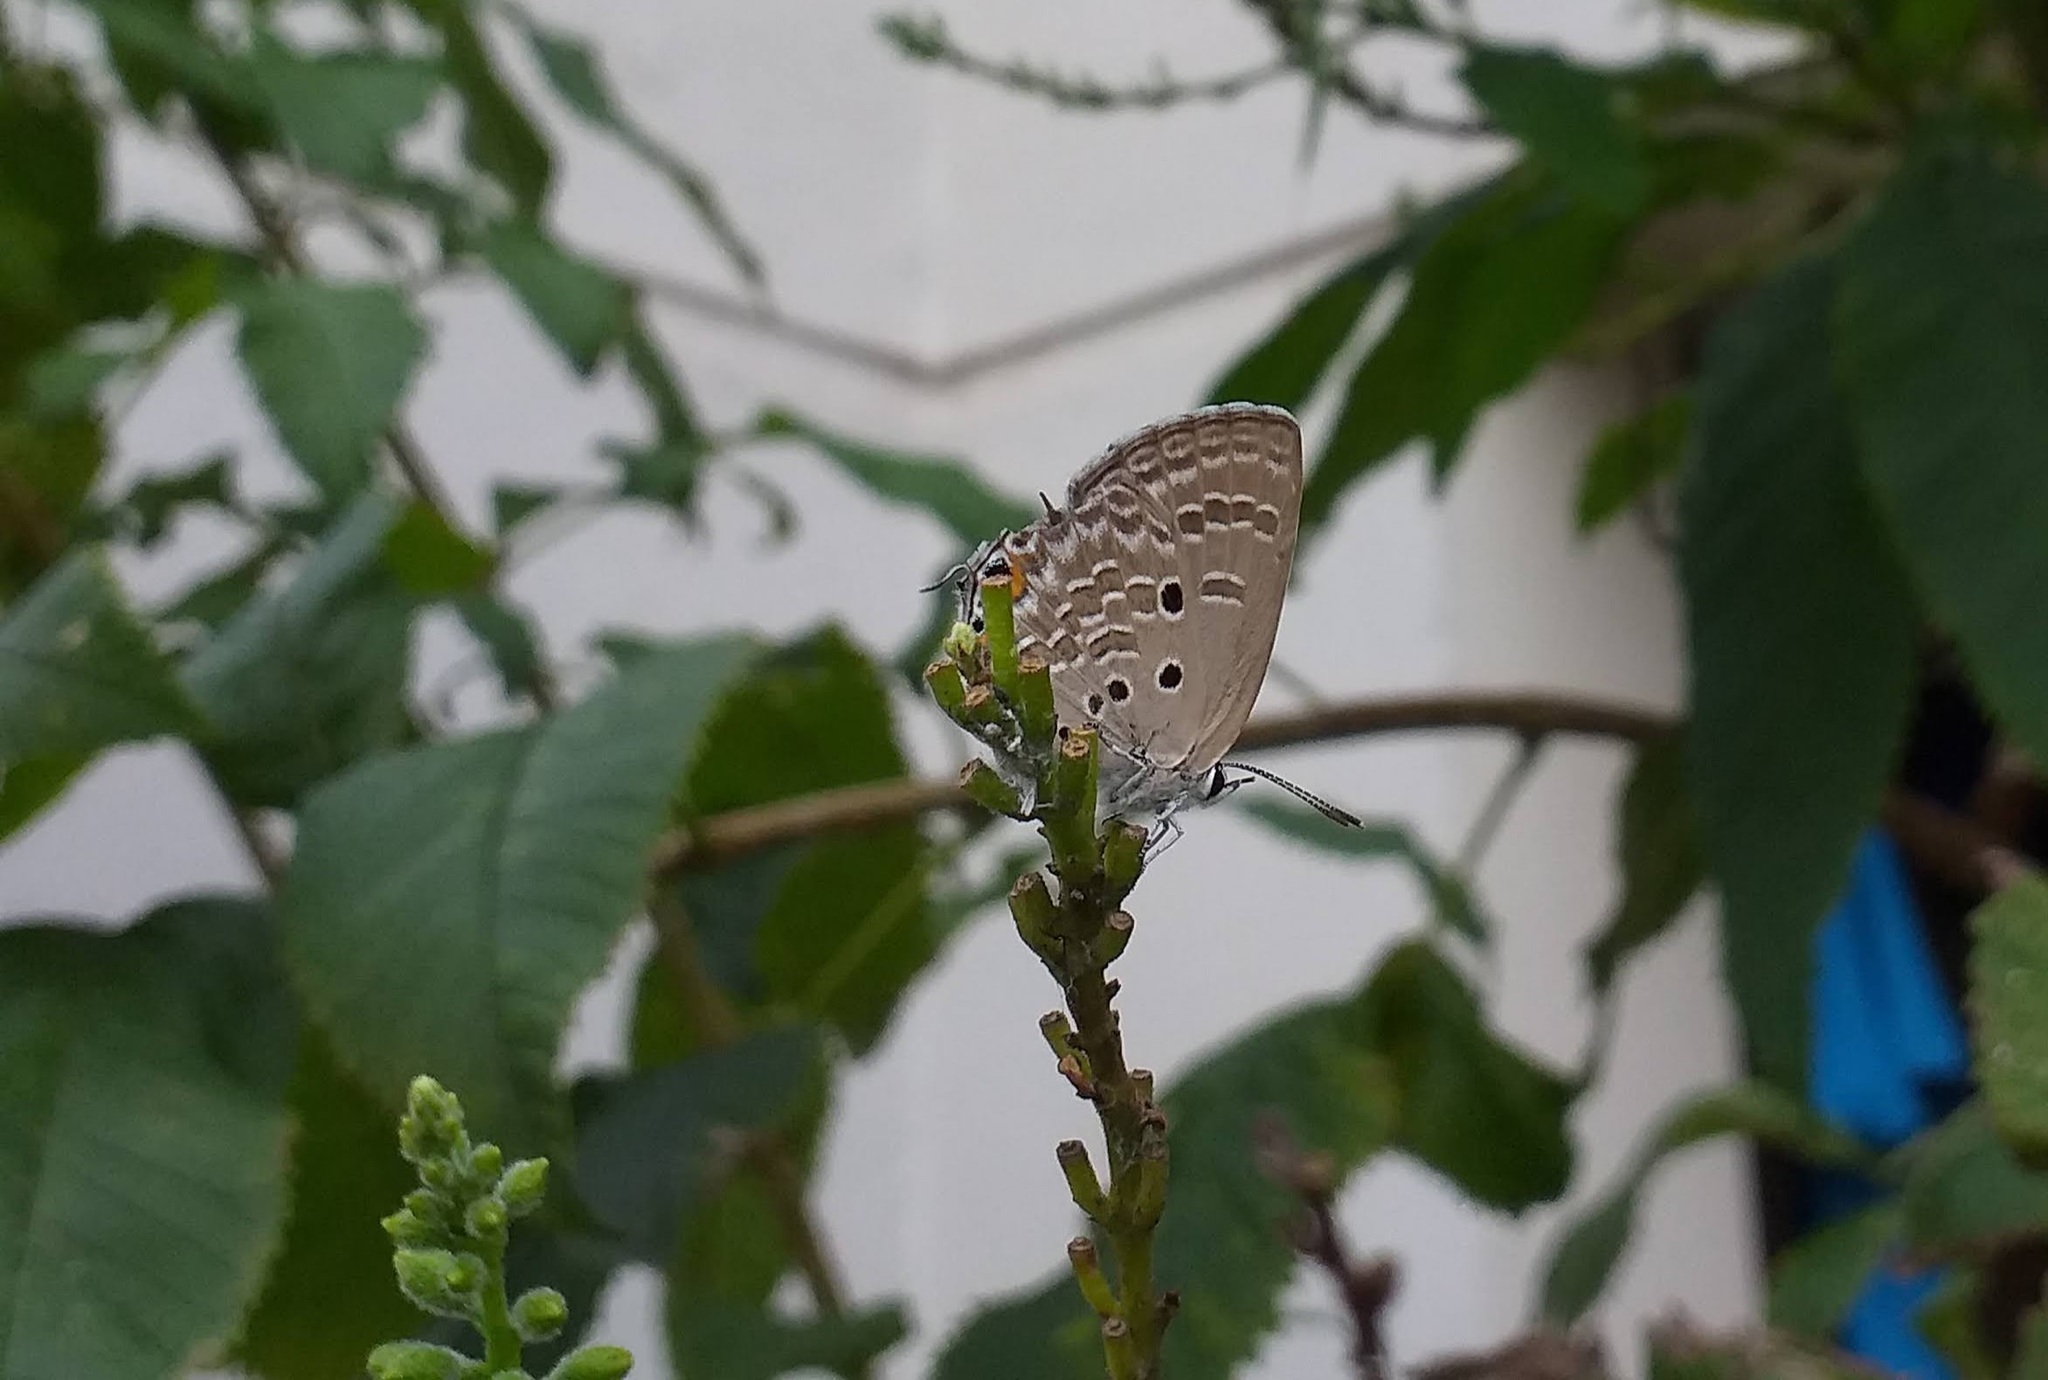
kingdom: Animalia
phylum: Arthropoda
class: Insecta
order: Lepidoptera
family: Lycaenidae
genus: Luthrodes
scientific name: Luthrodes pandava
